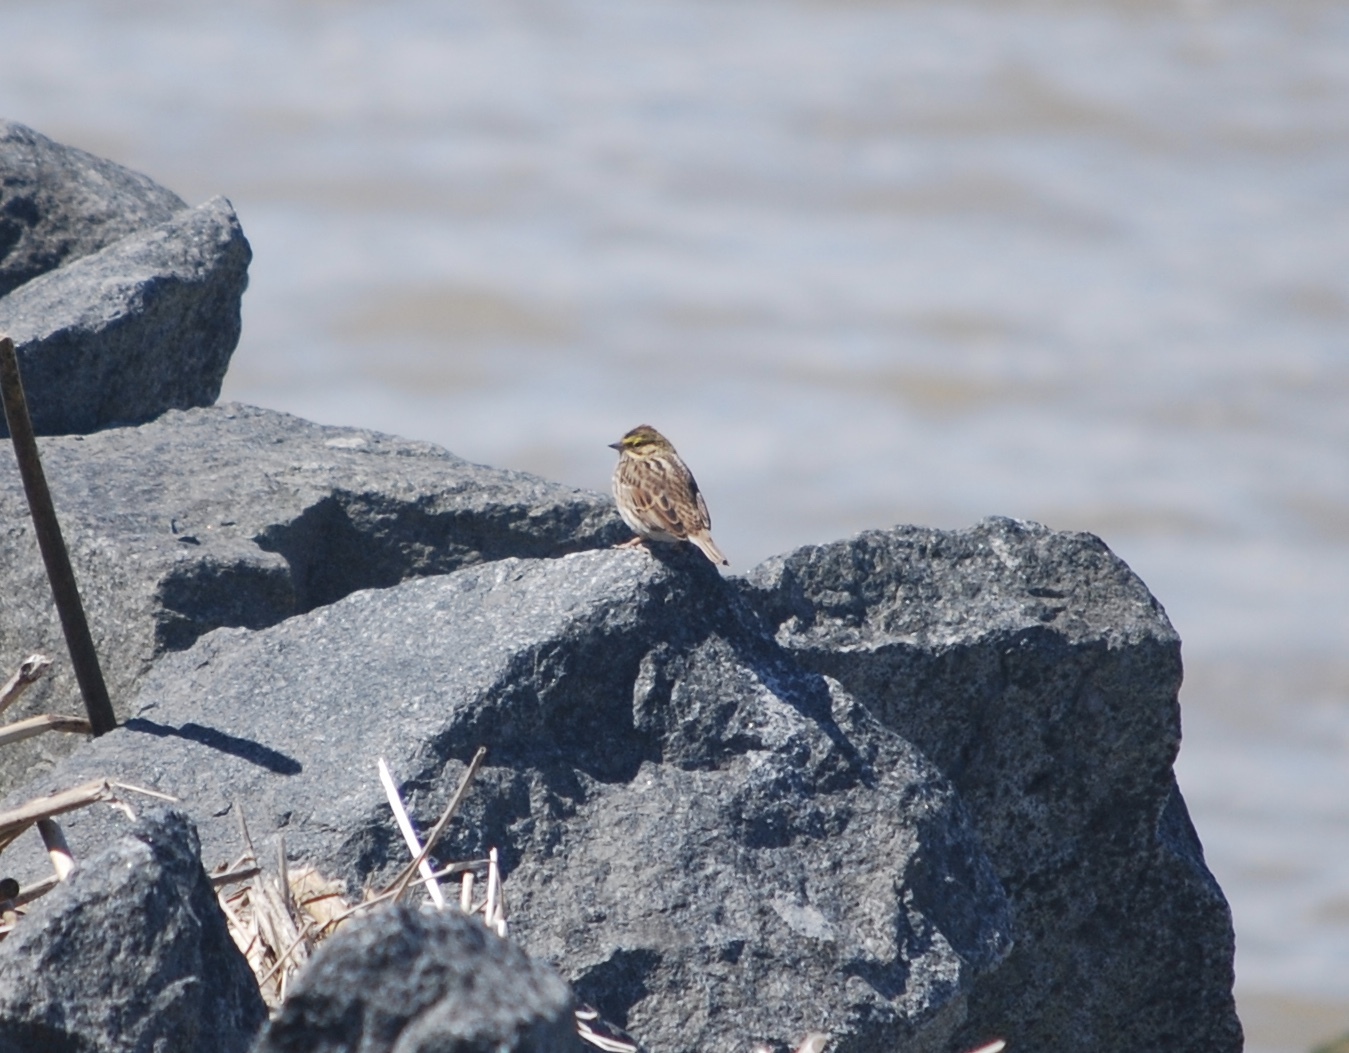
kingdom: Animalia
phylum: Chordata
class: Aves
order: Passeriformes
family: Passerellidae
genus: Passerculus
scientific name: Passerculus sandwichensis
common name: Savannah sparrow
